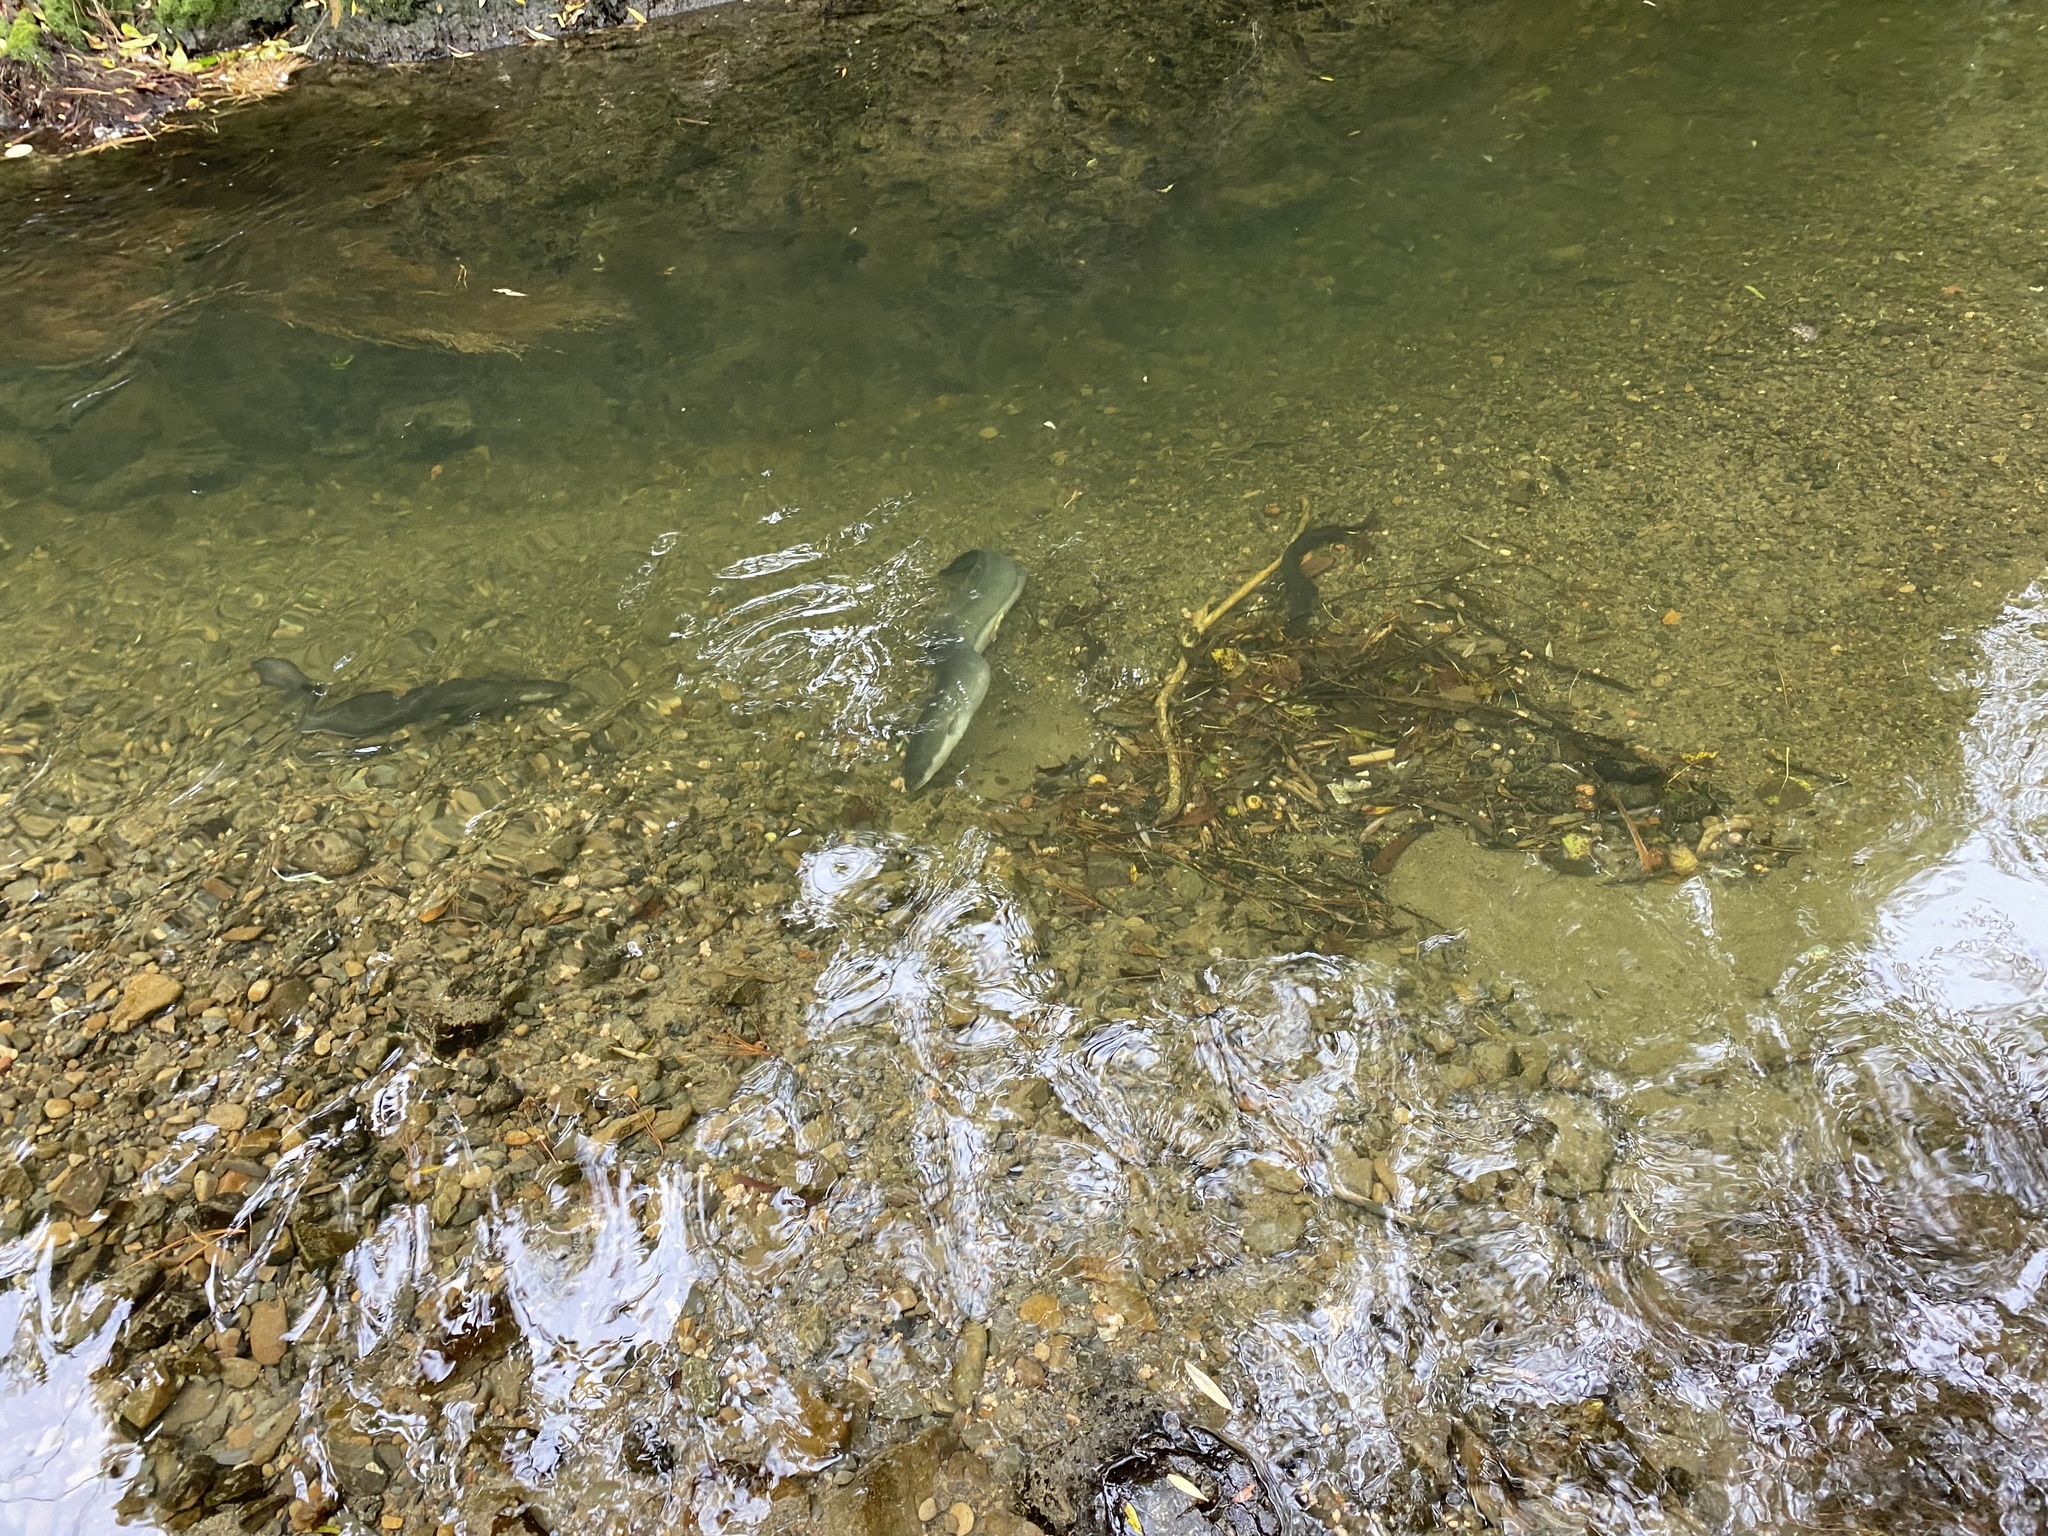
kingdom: Animalia
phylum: Chordata
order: Anguilliformes
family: Anguillidae
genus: Anguilla
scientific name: Anguilla dieffenbachii
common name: New zealand longfin eel
